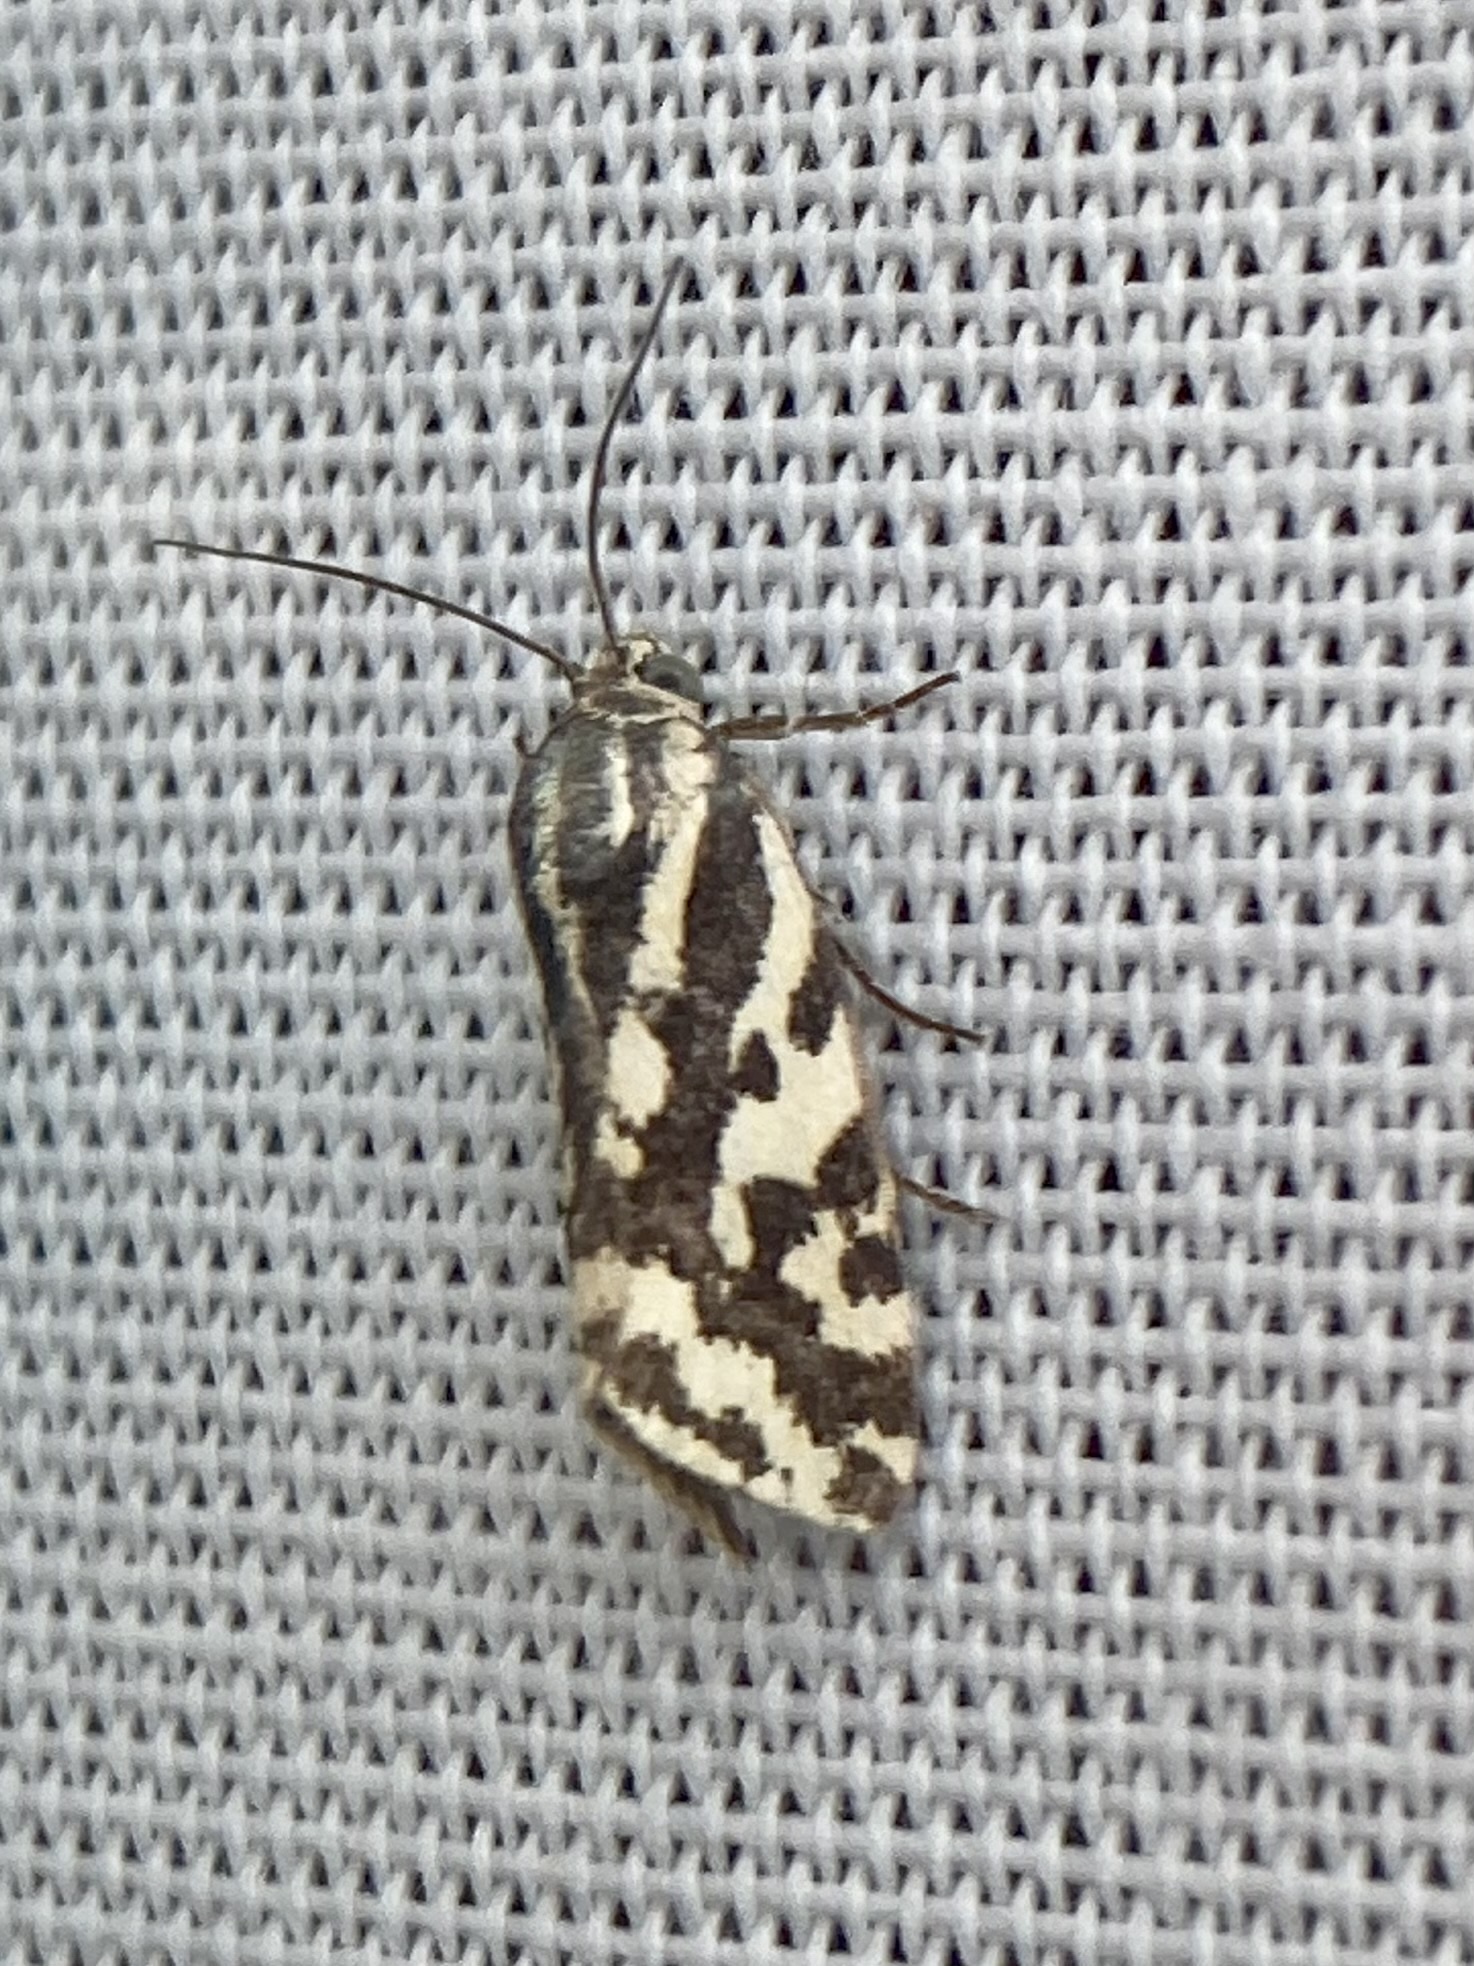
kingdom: Animalia
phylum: Arthropoda
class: Insecta
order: Lepidoptera
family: Noctuidae
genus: Acontia
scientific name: Acontia trabealis
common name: Spotted sulphur
